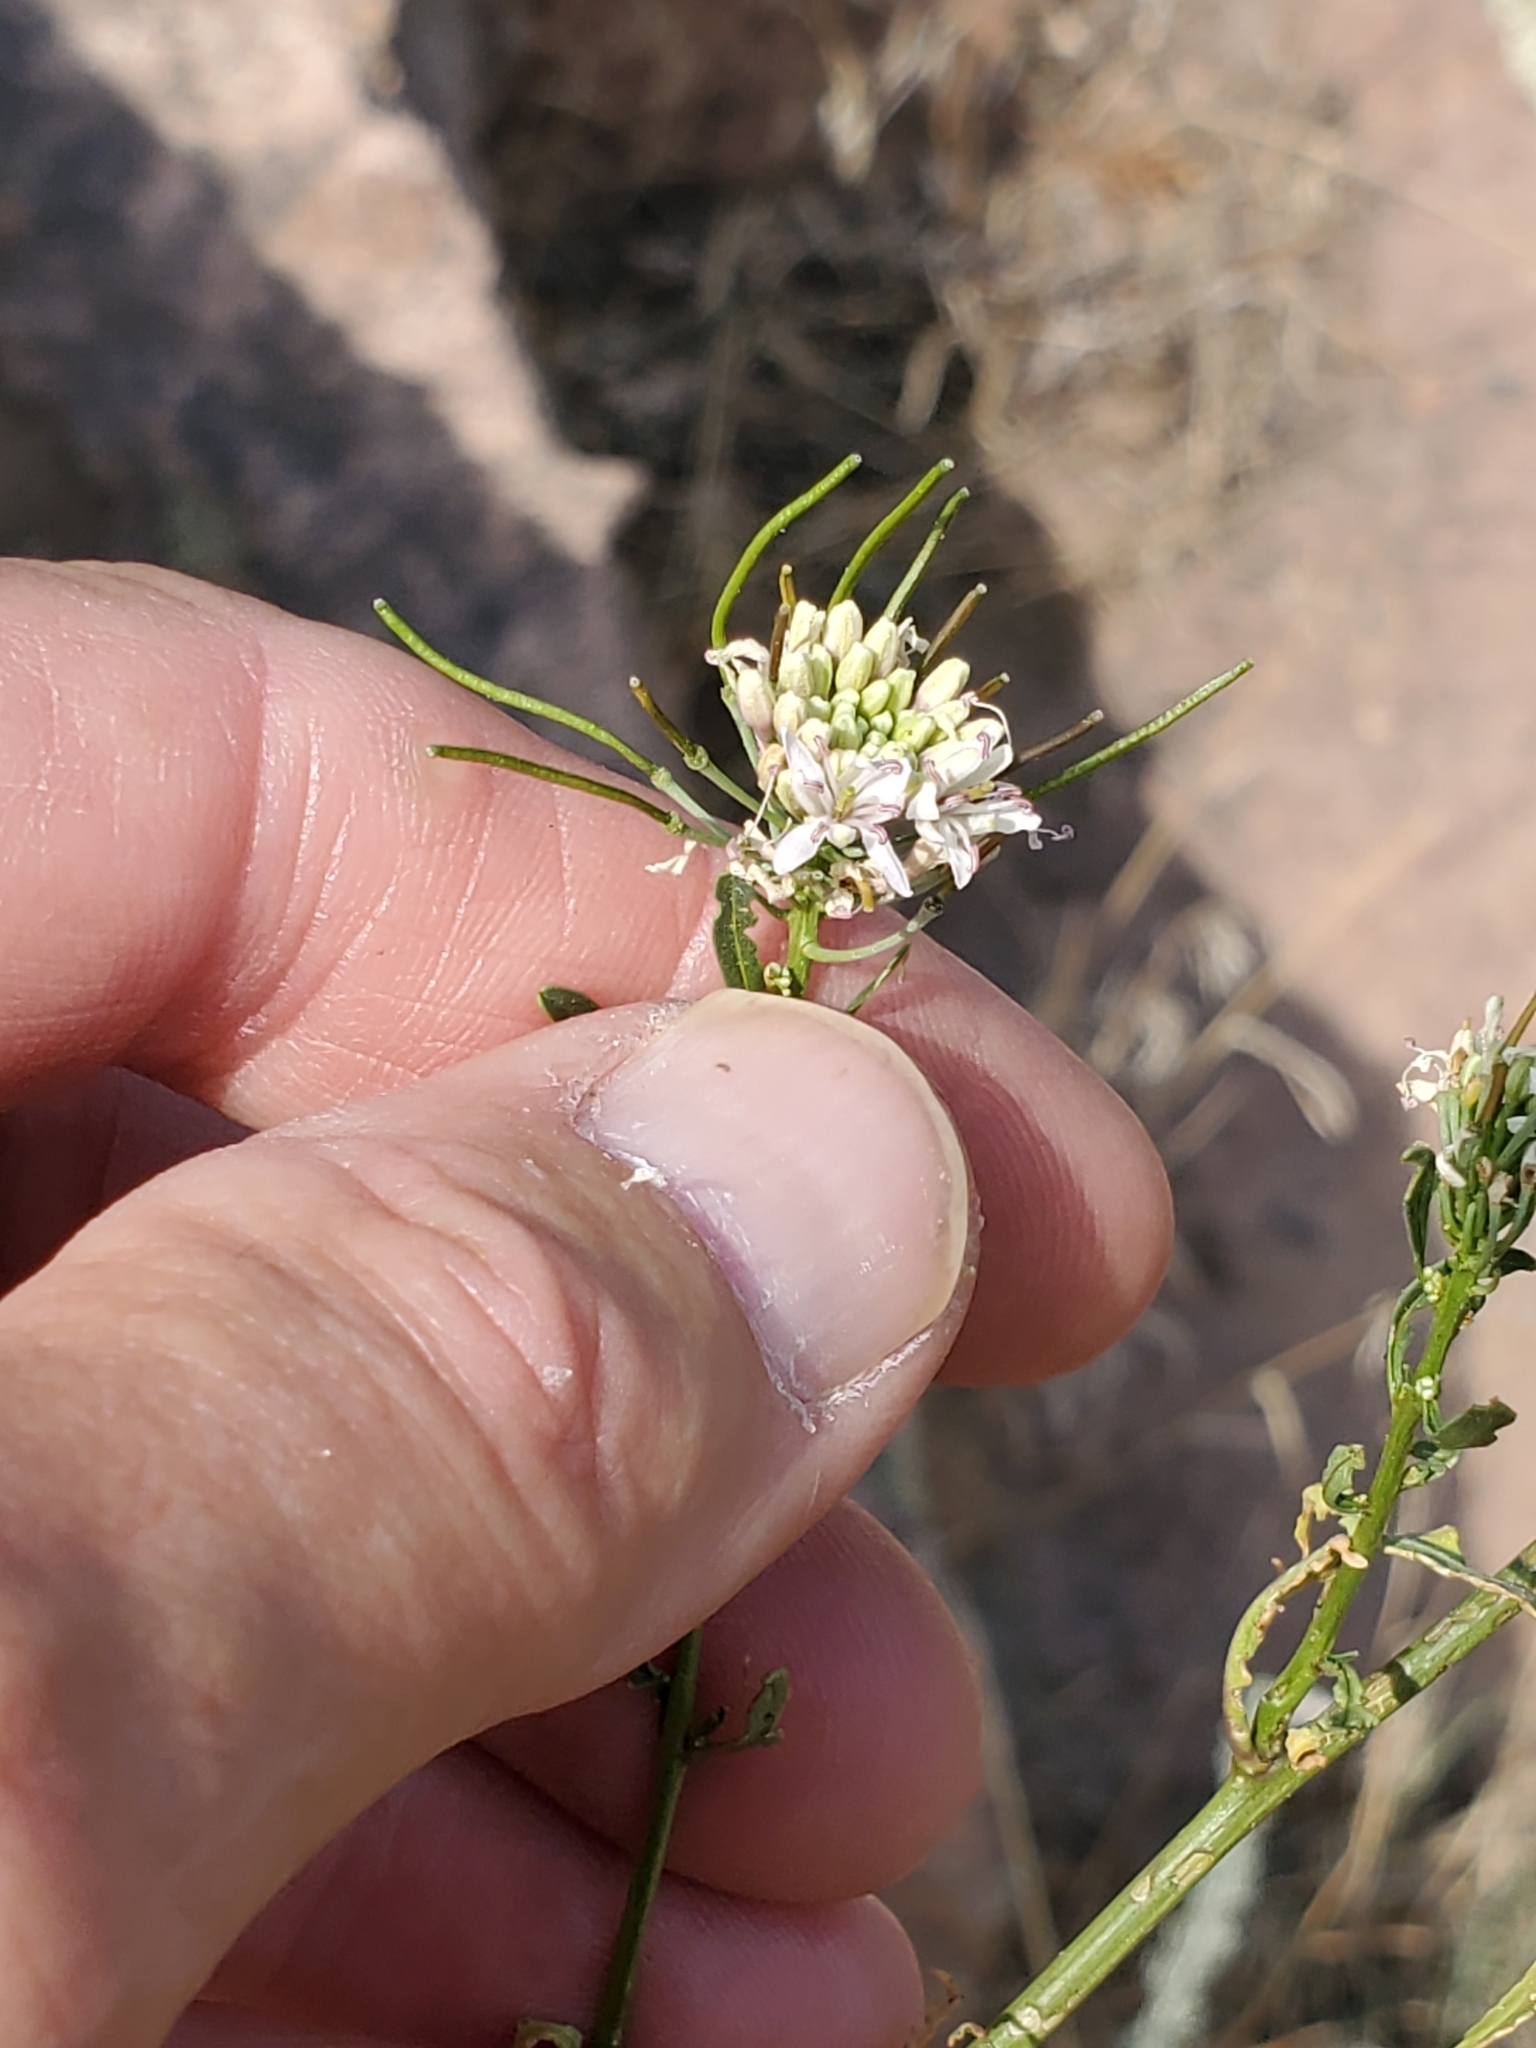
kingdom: Plantae
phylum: Tracheophyta
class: Magnoliopsida
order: Brassicales
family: Brassicaceae
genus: Thelypodium
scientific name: Thelypodium wrightii
